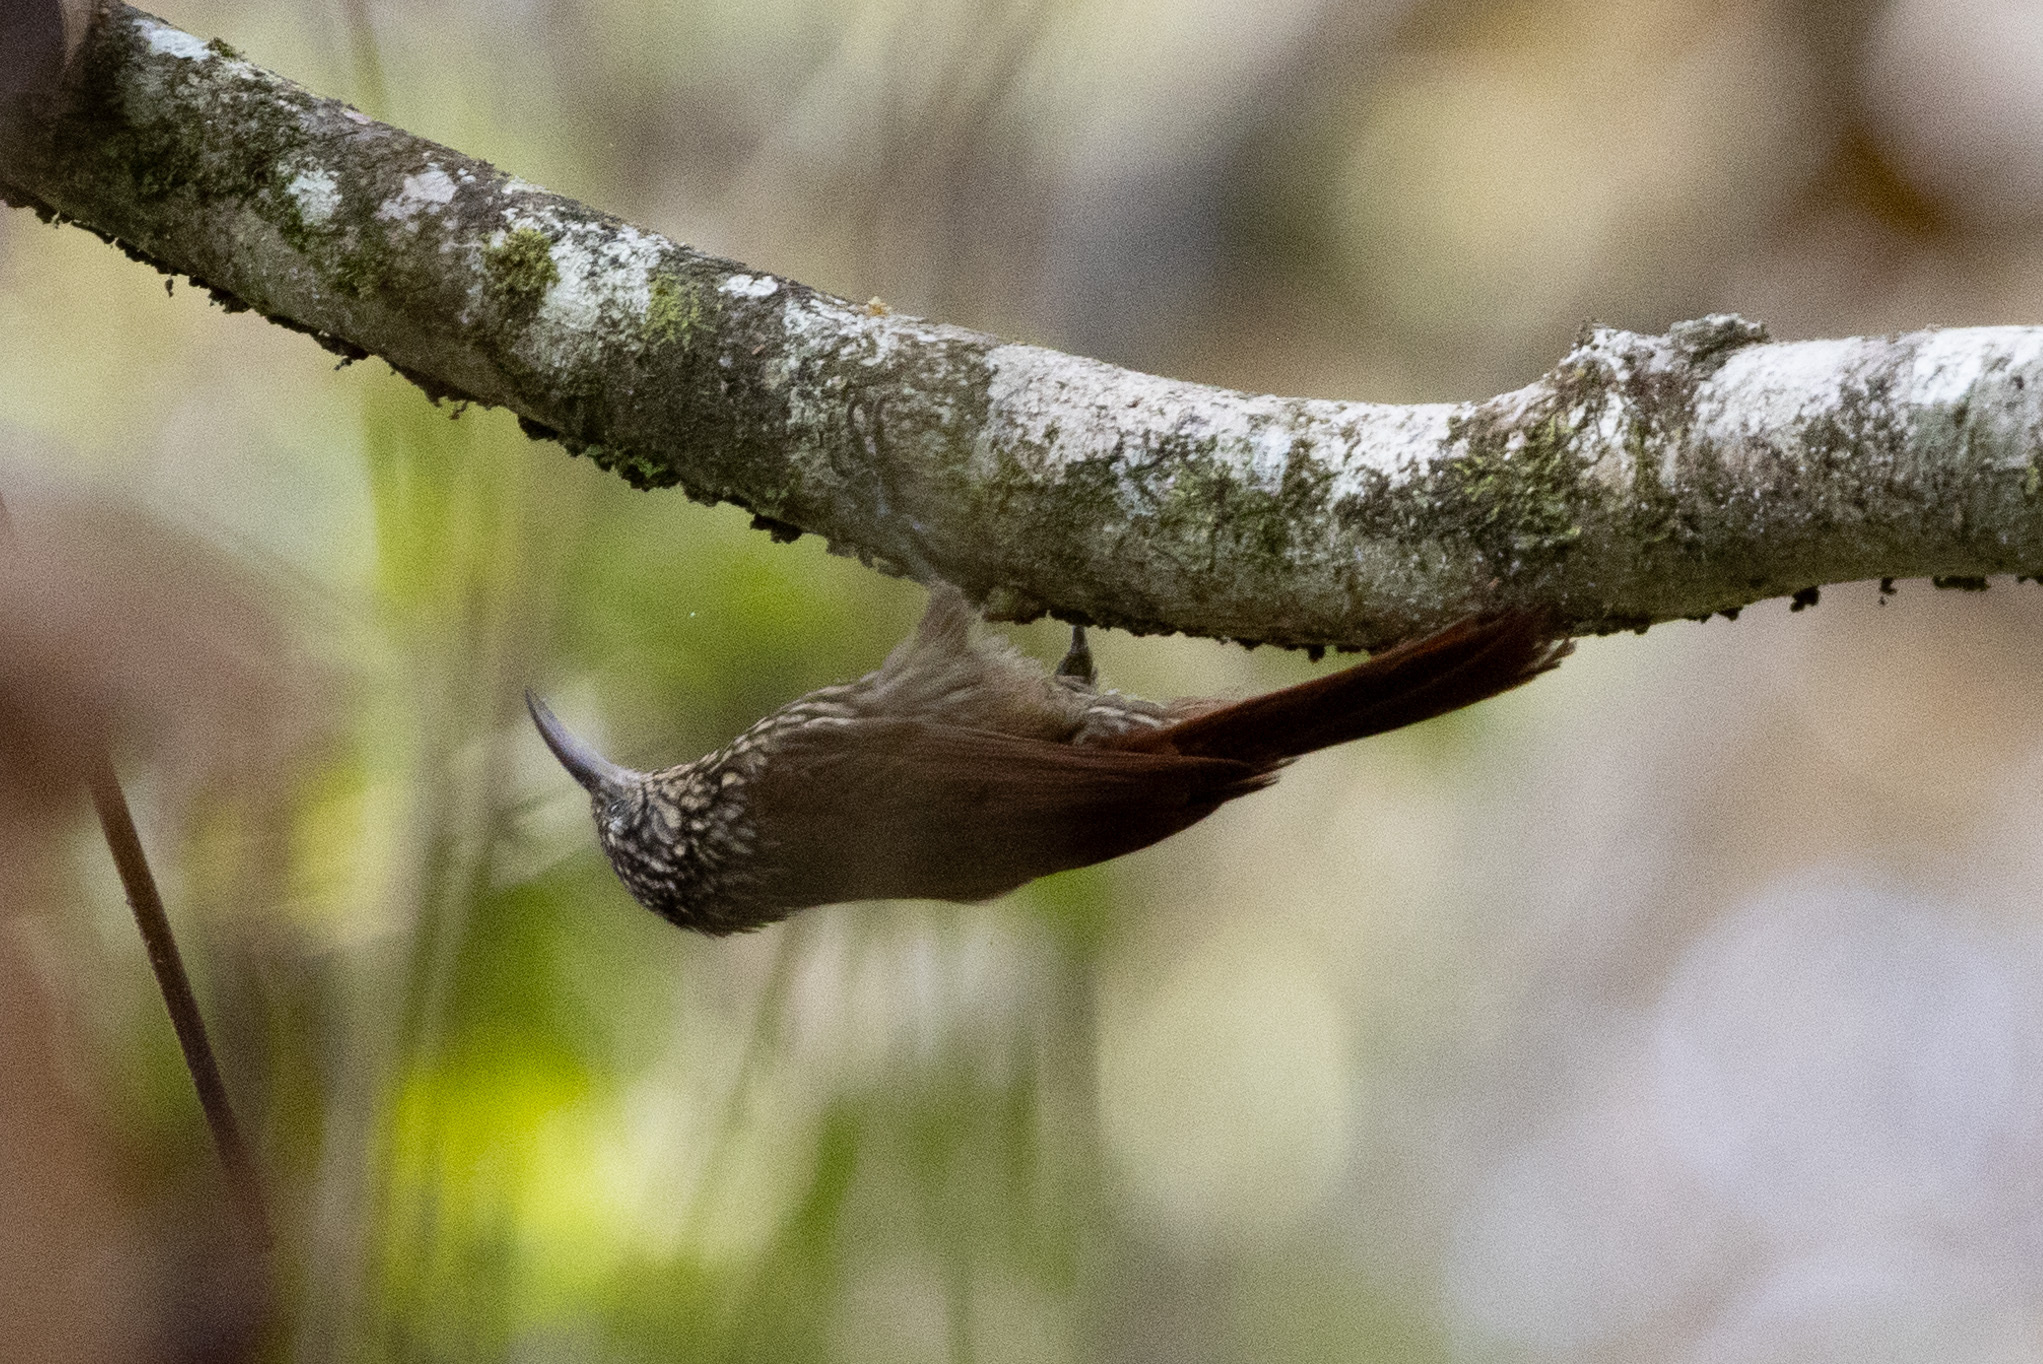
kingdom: Animalia
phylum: Chordata
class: Aves
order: Passeriformes
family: Furnariidae
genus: Lepidocolaptes
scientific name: Lepidocolaptes souleyetii
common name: Streak-headed woodcreeper
